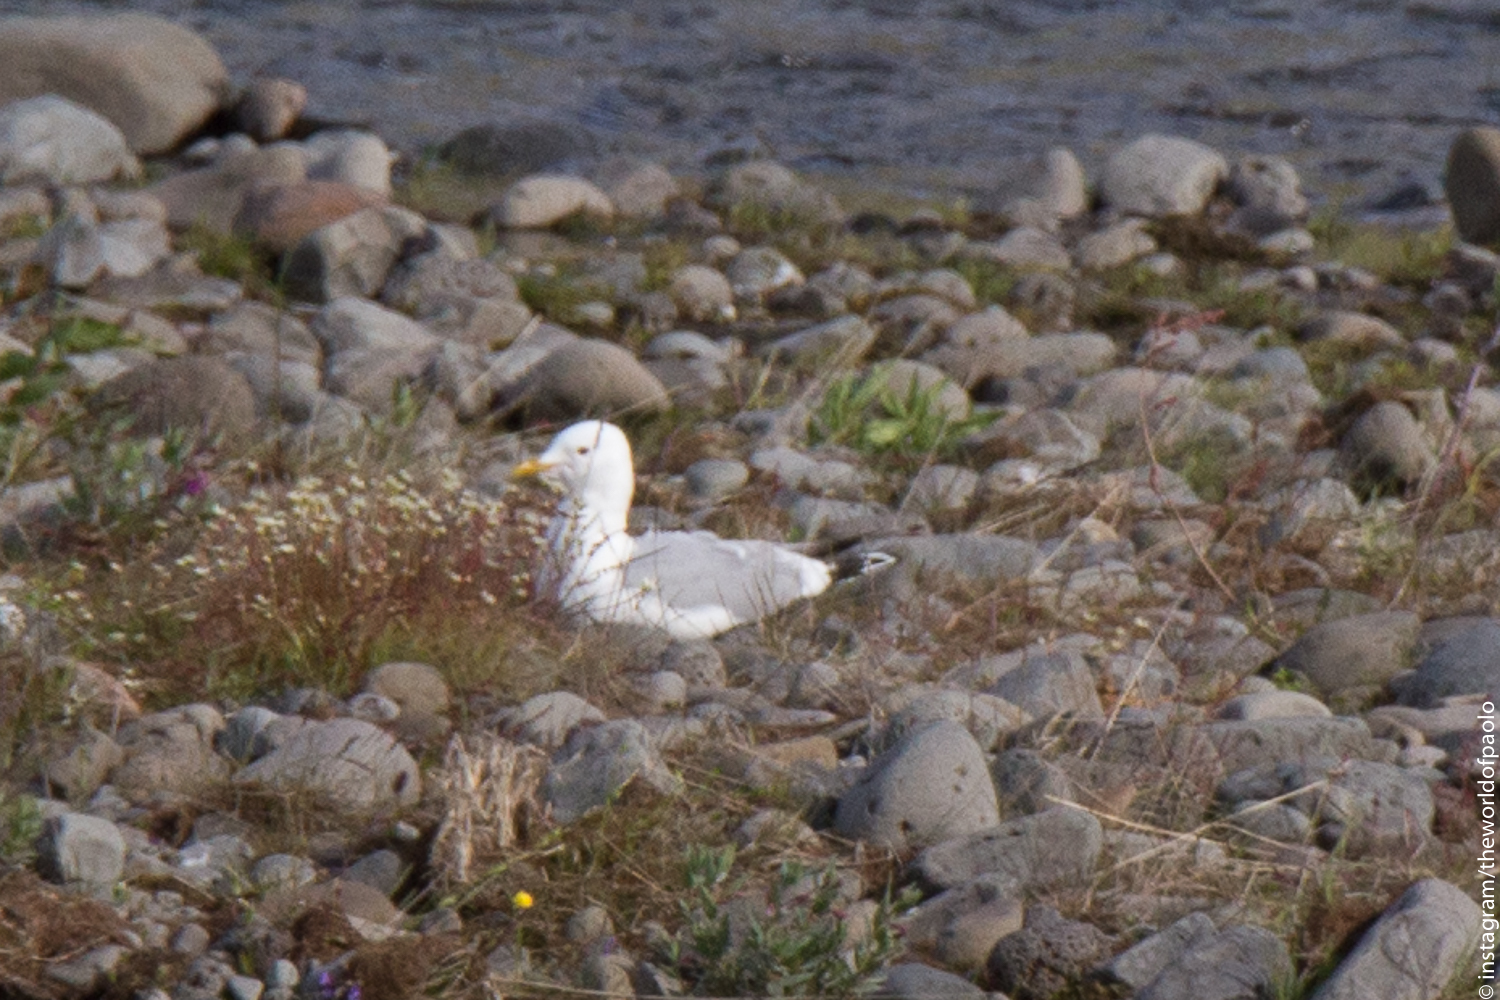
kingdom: Animalia
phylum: Chordata
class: Aves
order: Charadriiformes
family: Laridae
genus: Larus
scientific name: Larus canus
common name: Mew gull
